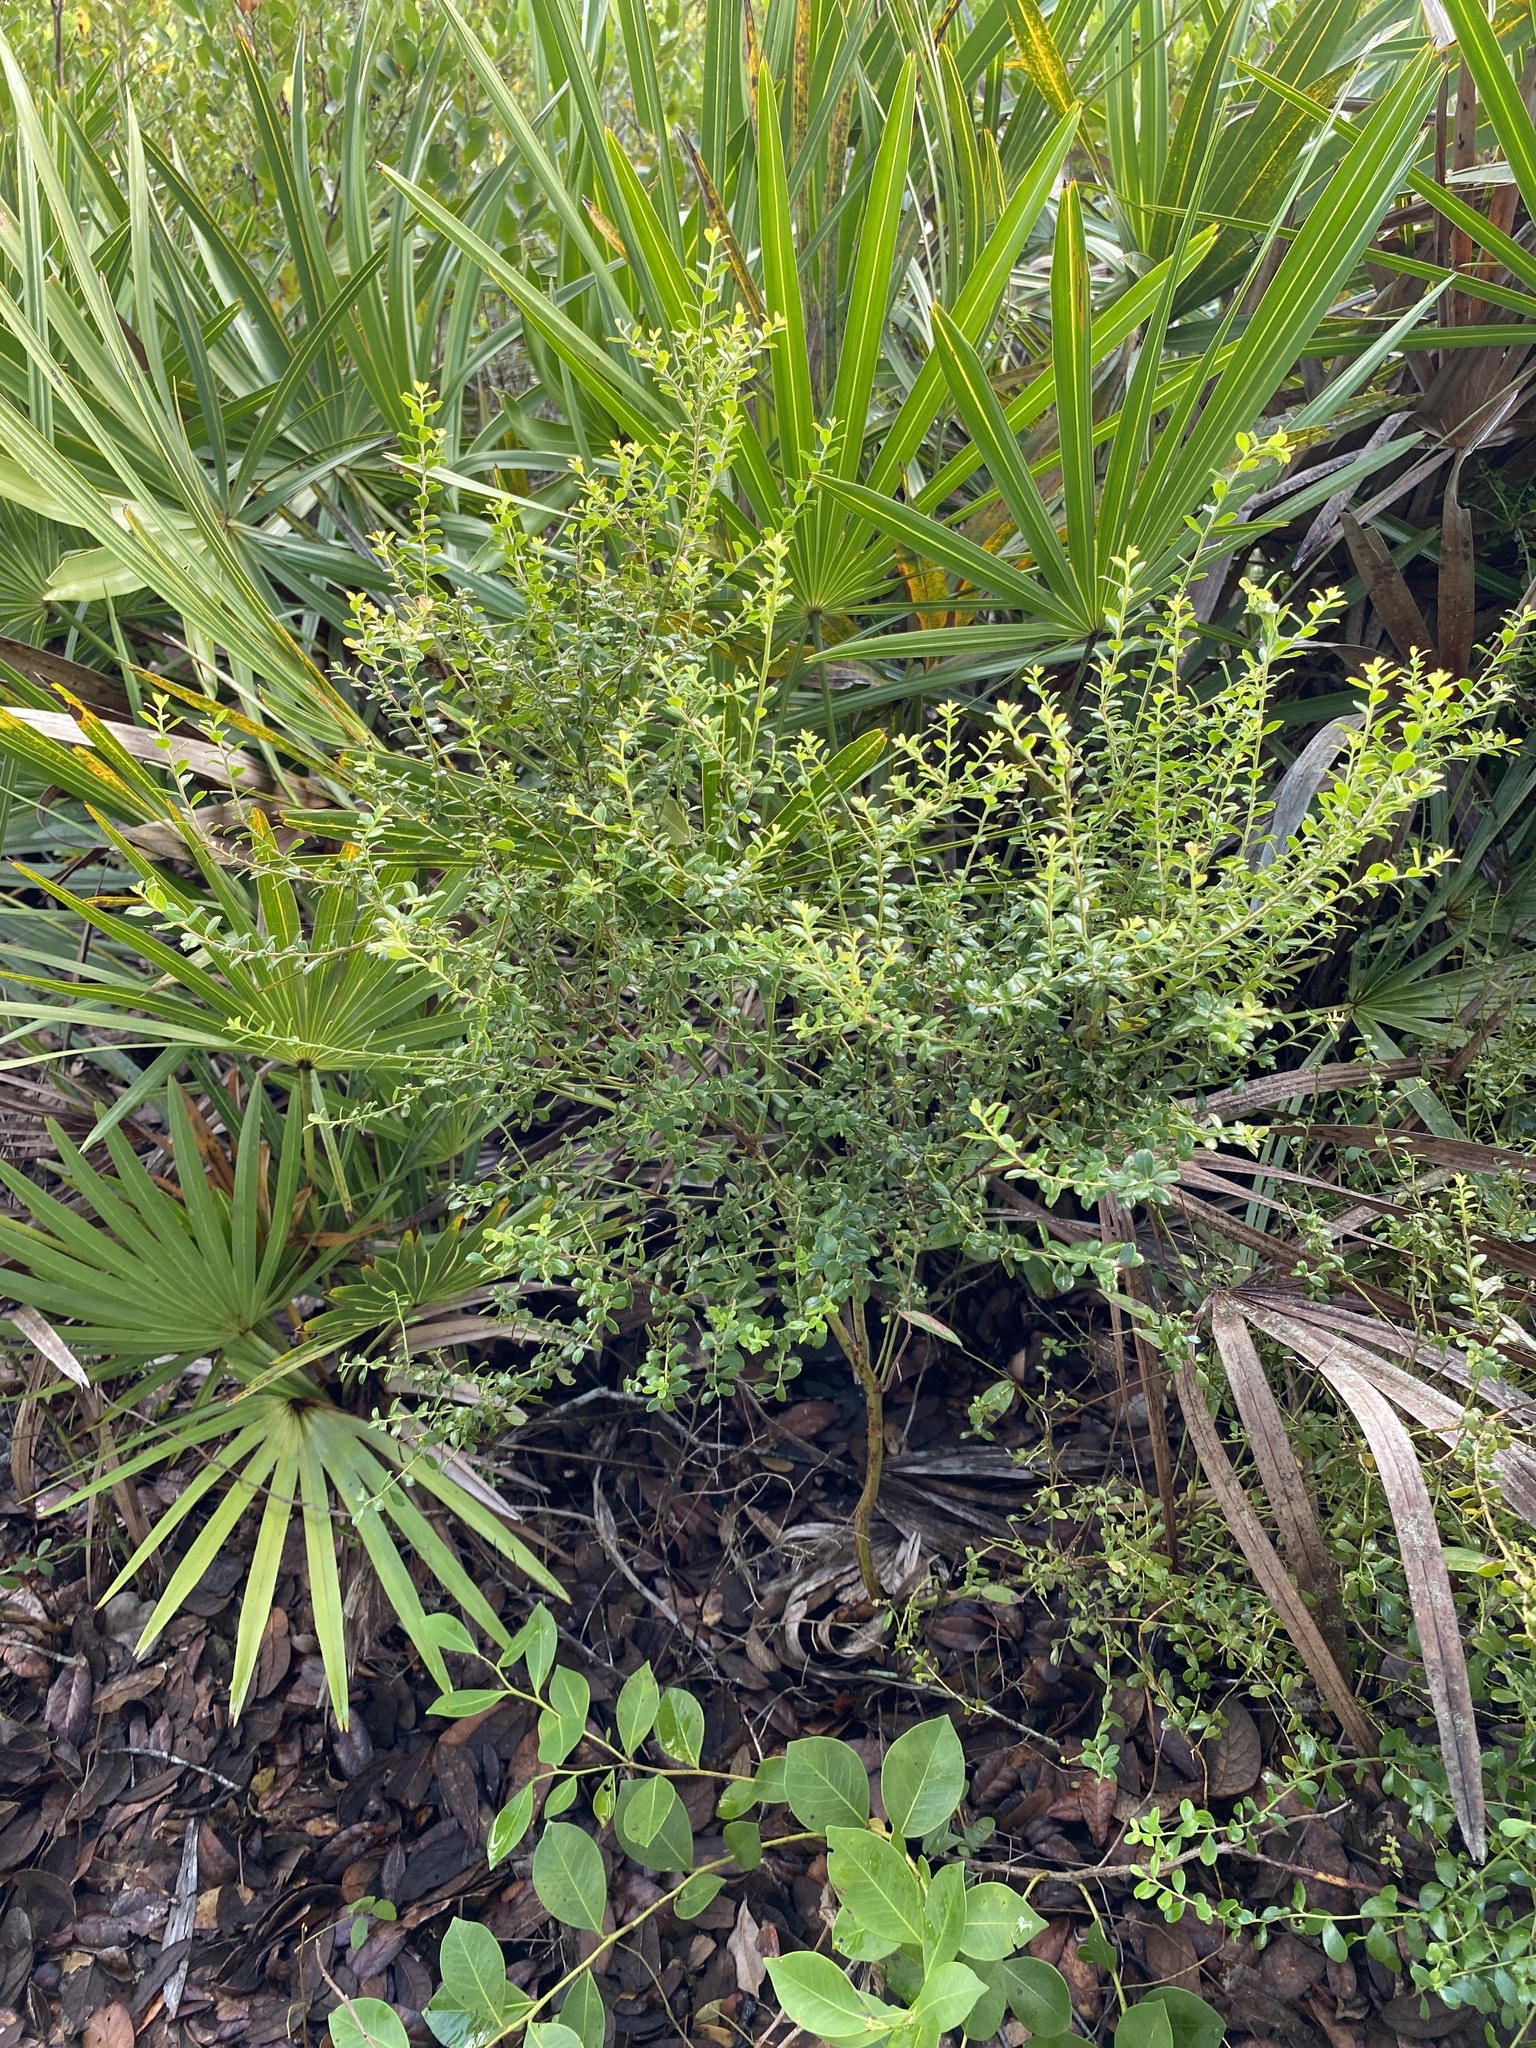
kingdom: Plantae
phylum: Tracheophyta
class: Magnoliopsida
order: Ericales
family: Ericaceae
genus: Vaccinium
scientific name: Vaccinium myrsinites
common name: Evergreen blueberry
